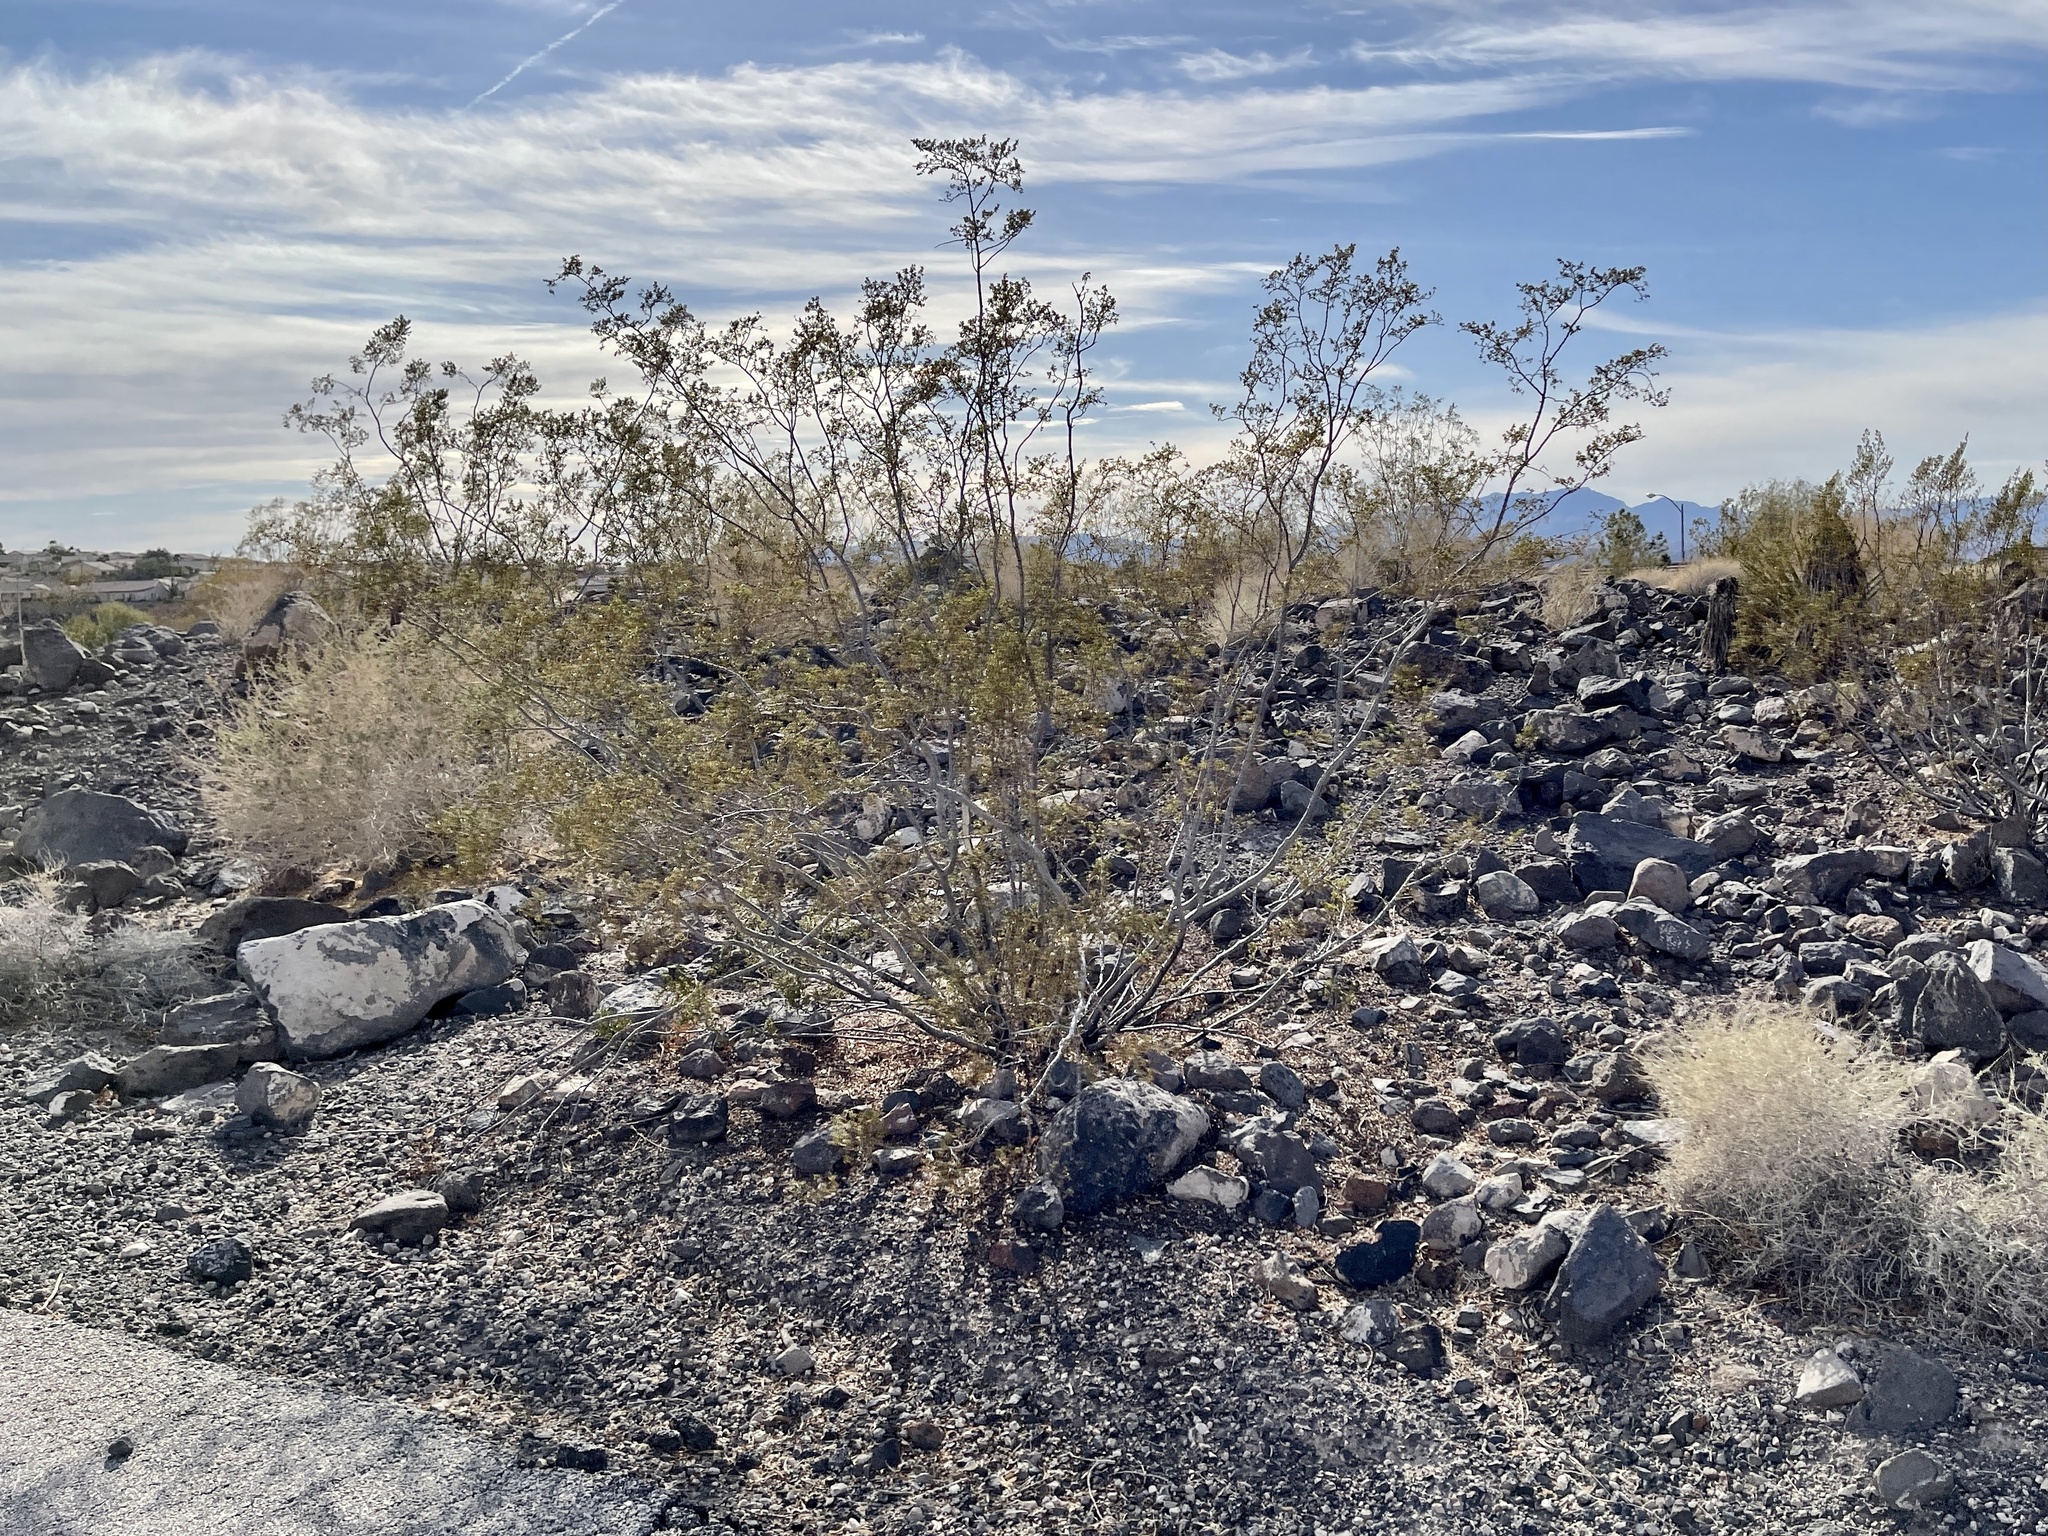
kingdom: Plantae
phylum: Tracheophyta
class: Magnoliopsida
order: Zygophyllales
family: Zygophyllaceae
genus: Larrea
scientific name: Larrea tridentata
